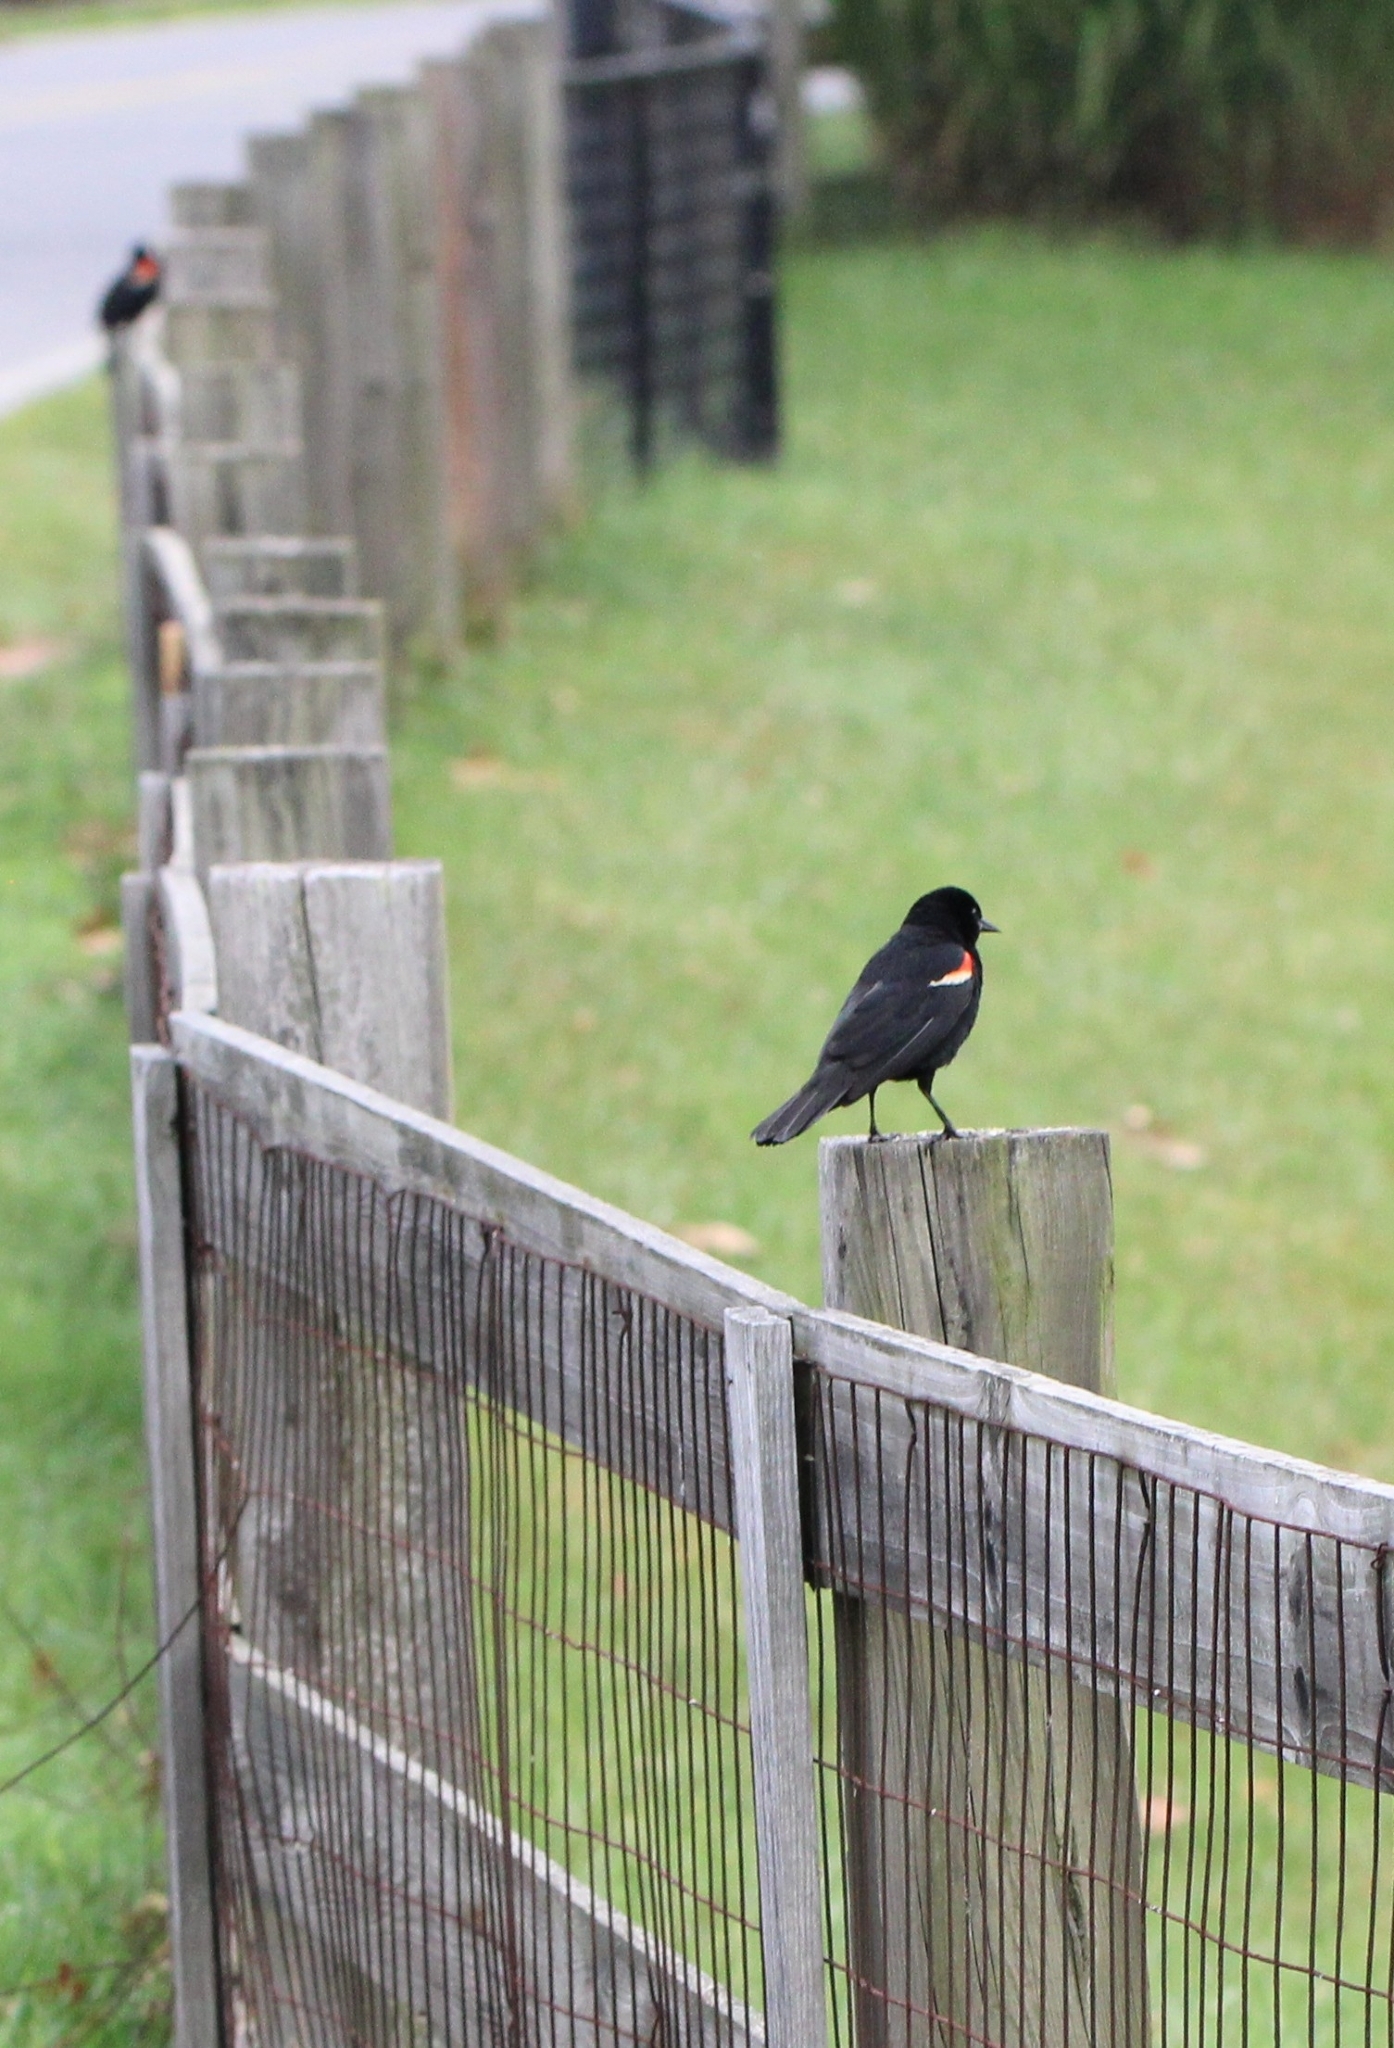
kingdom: Animalia
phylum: Chordata
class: Aves
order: Passeriformes
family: Icteridae
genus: Agelaius
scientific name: Agelaius phoeniceus
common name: Red-winged blackbird
